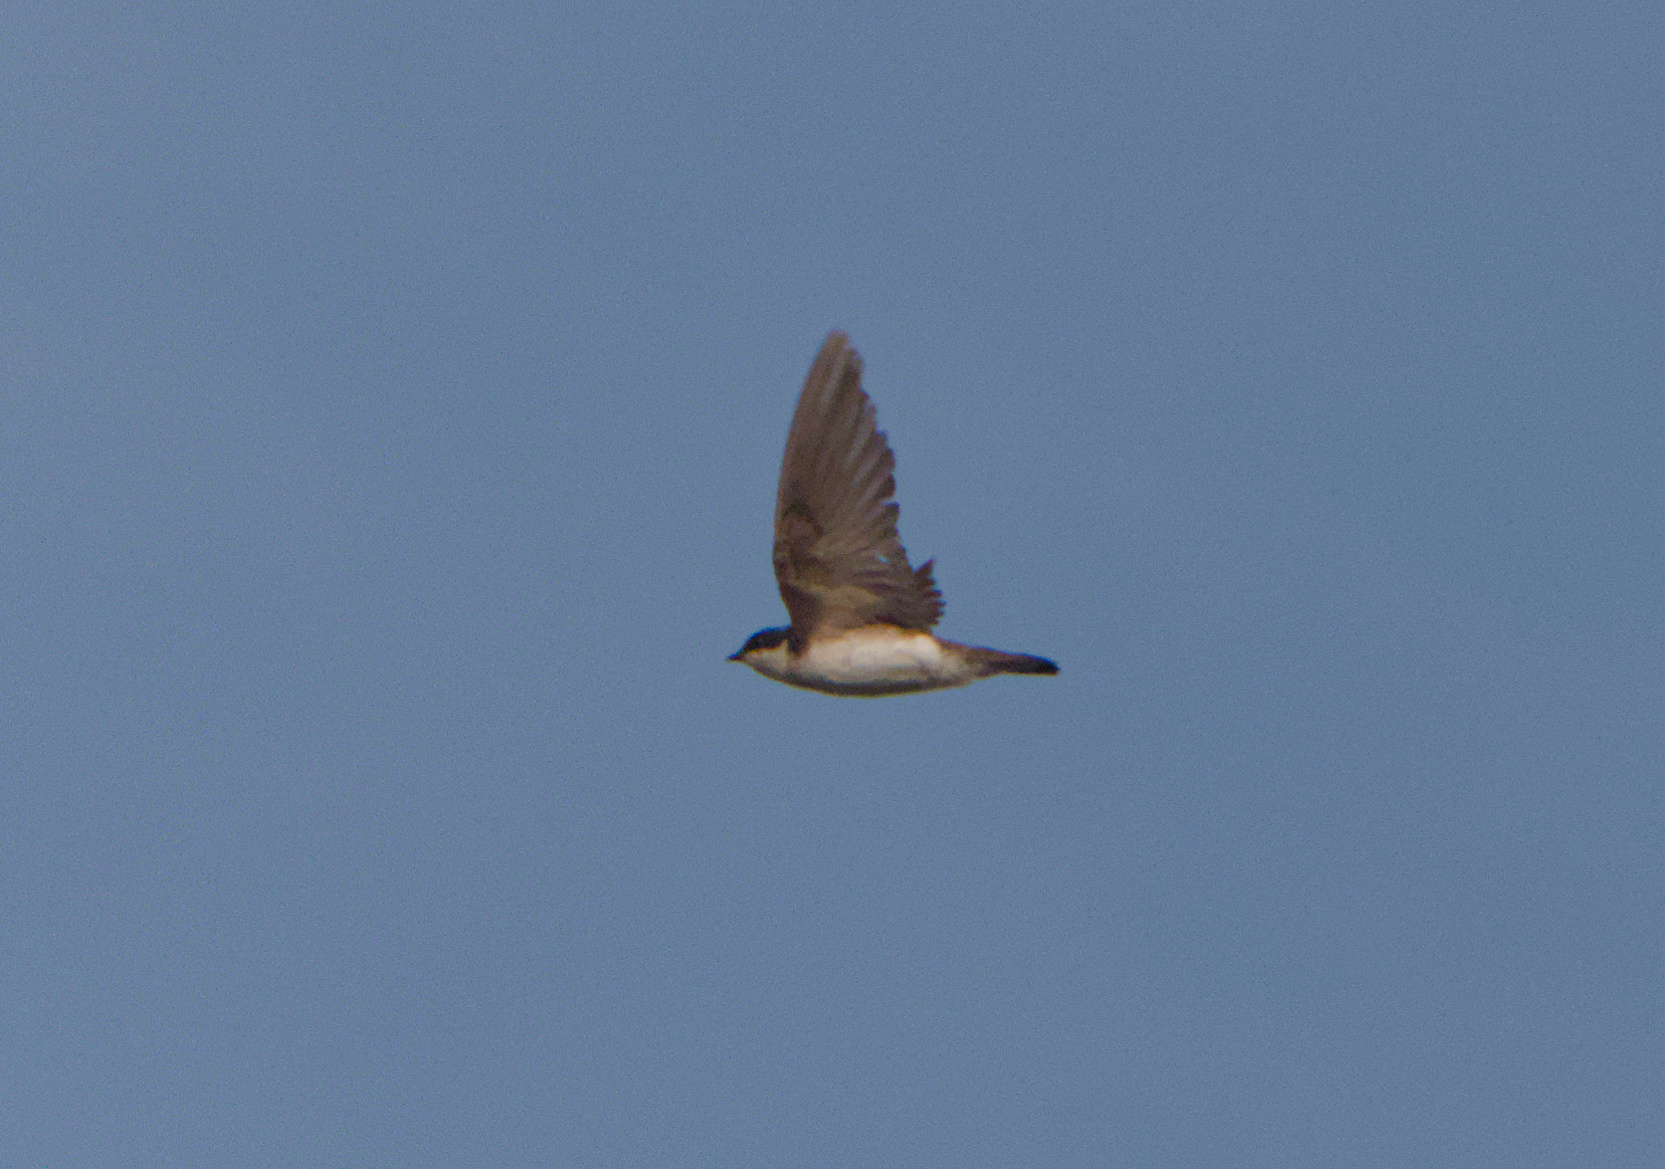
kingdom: Animalia
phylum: Chordata
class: Aves
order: Passeriformes
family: Hirundinidae
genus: Tachycineta
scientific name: Tachycineta bicolor
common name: Tree swallow
